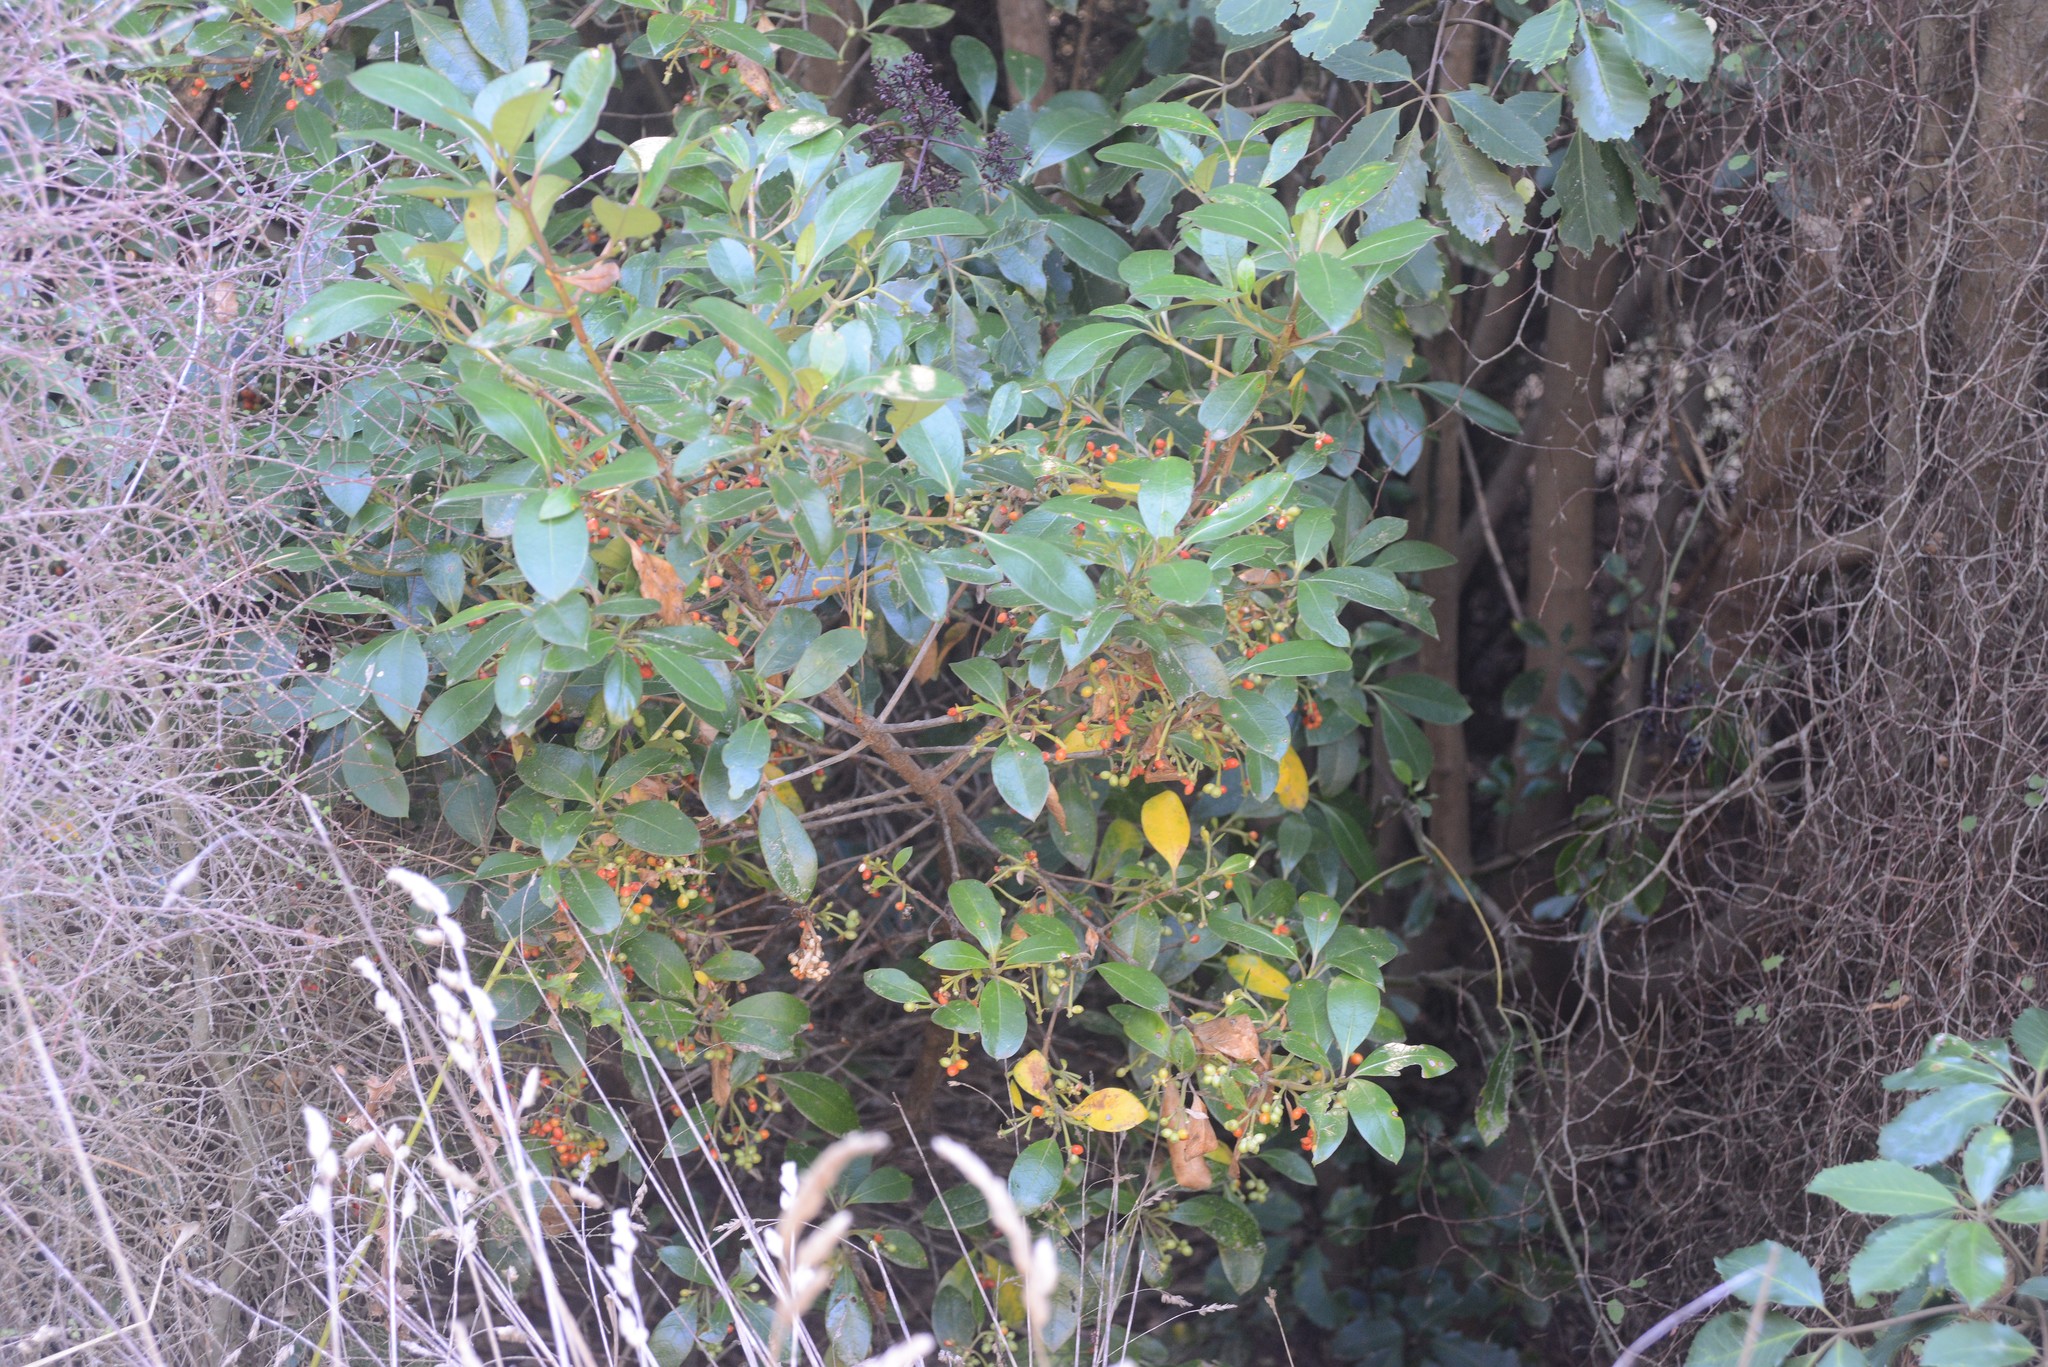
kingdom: Plantae
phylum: Tracheophyta
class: Magnoliopsida
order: Gentianales
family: Rubiaceae
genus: Coprosma
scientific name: Coprosma lucida
